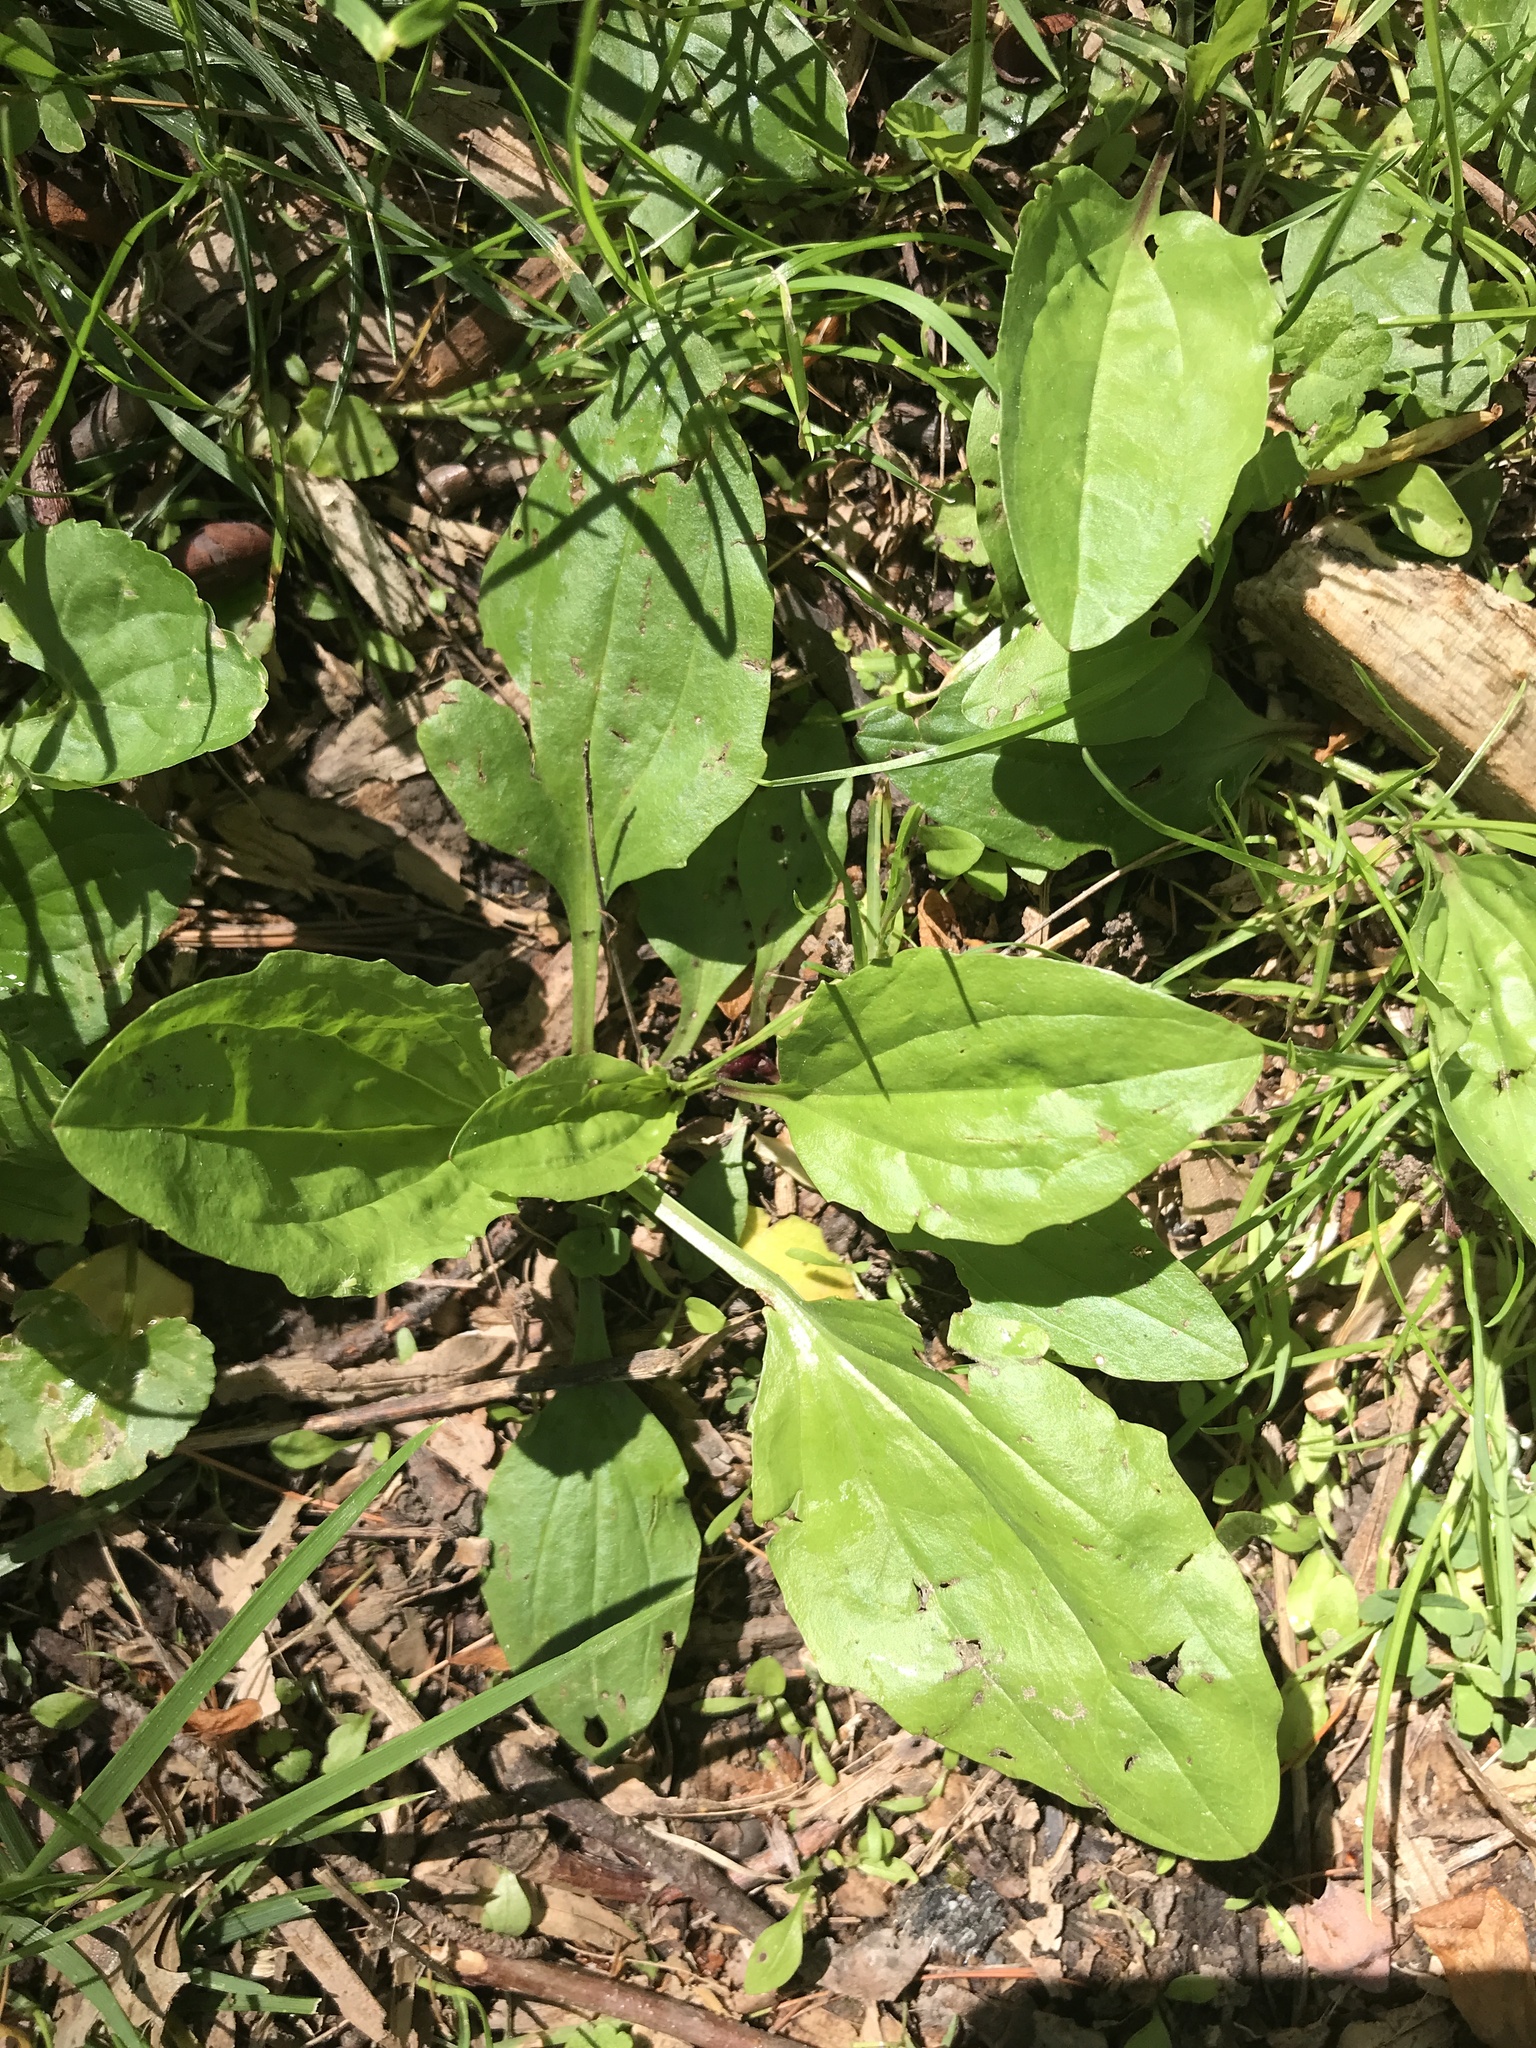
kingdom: Plantae
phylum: Tracheophyta
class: Magnoliopsida
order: Lamiales
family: Plantaginaceae
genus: Plantago
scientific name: Plantago rugelii
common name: American plantain
